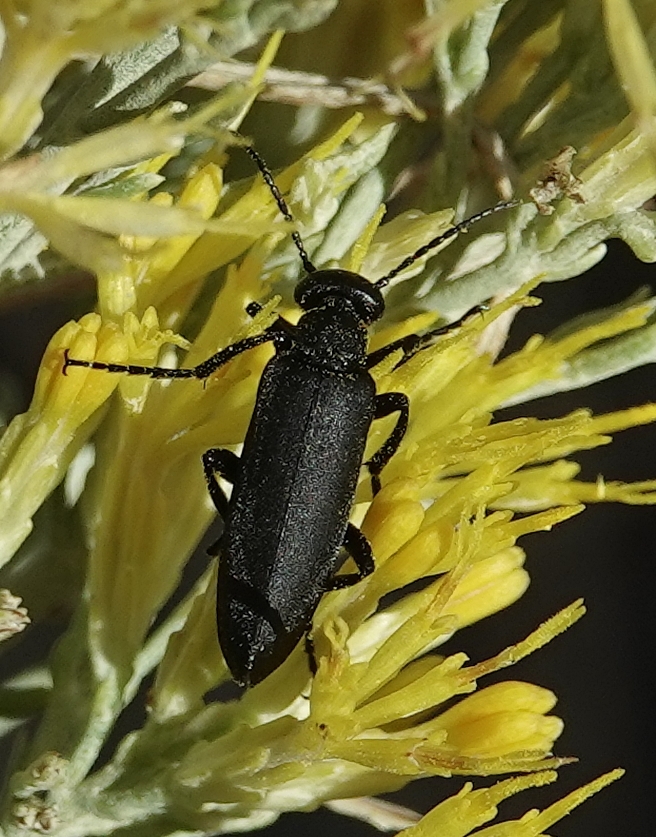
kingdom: Animalia
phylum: Arthropoda
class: Insecta
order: Coleoptera
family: Meloidae
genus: Epicauta
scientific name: Epicauta pensylvanica
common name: Black blister beetle
